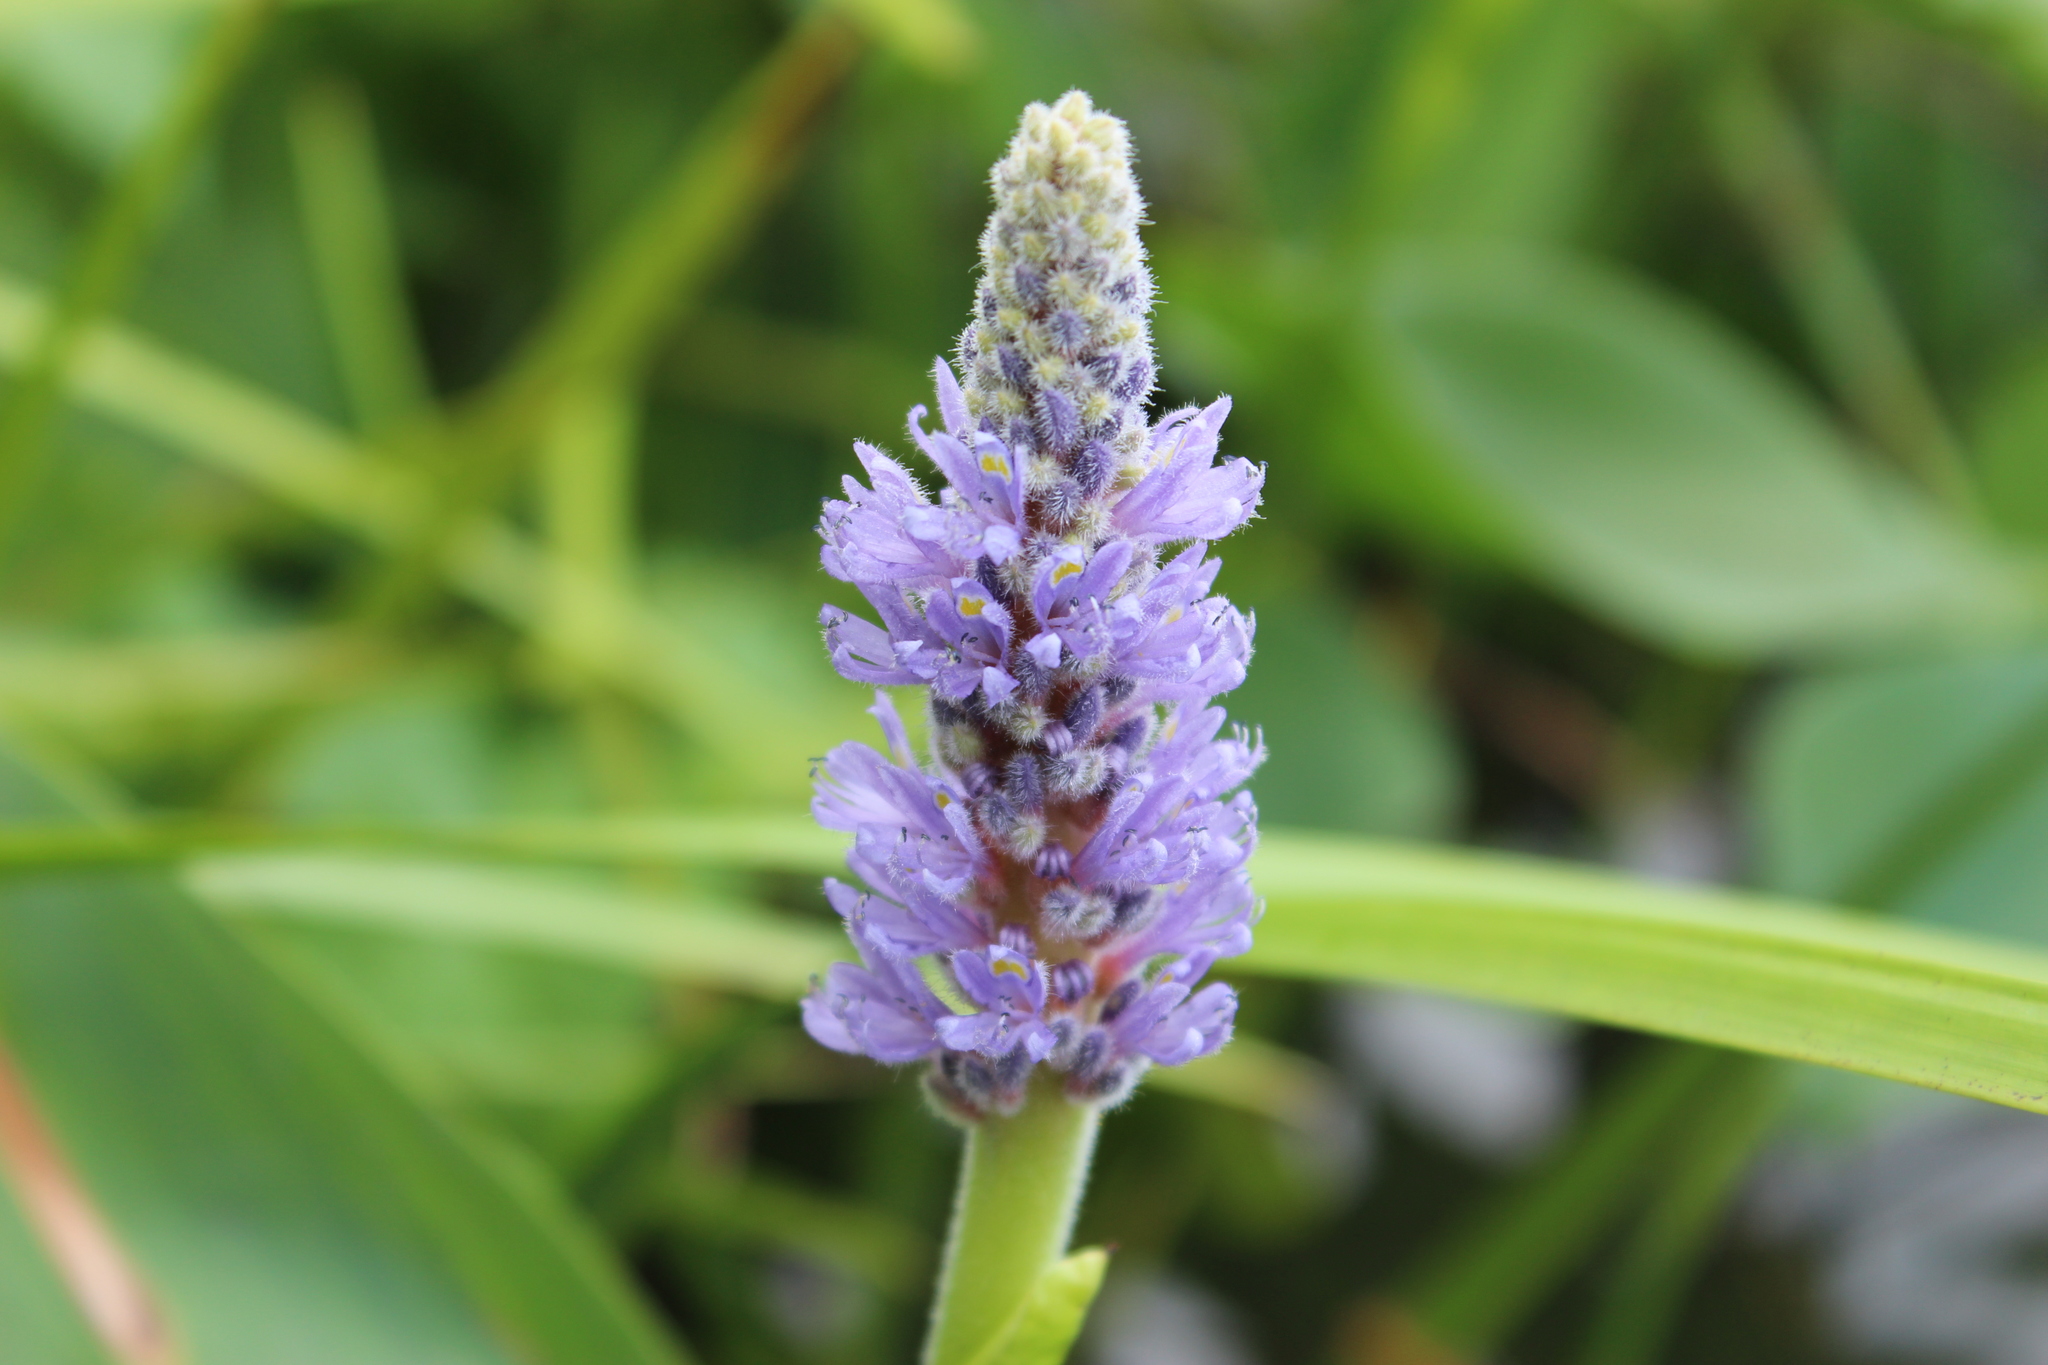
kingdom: Plantae
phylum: Tracheophyta
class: Liliopsida
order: Commelinales
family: Pontederiaceae
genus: Pontederia
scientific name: Pontederia cordata
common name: Pickerelweed
